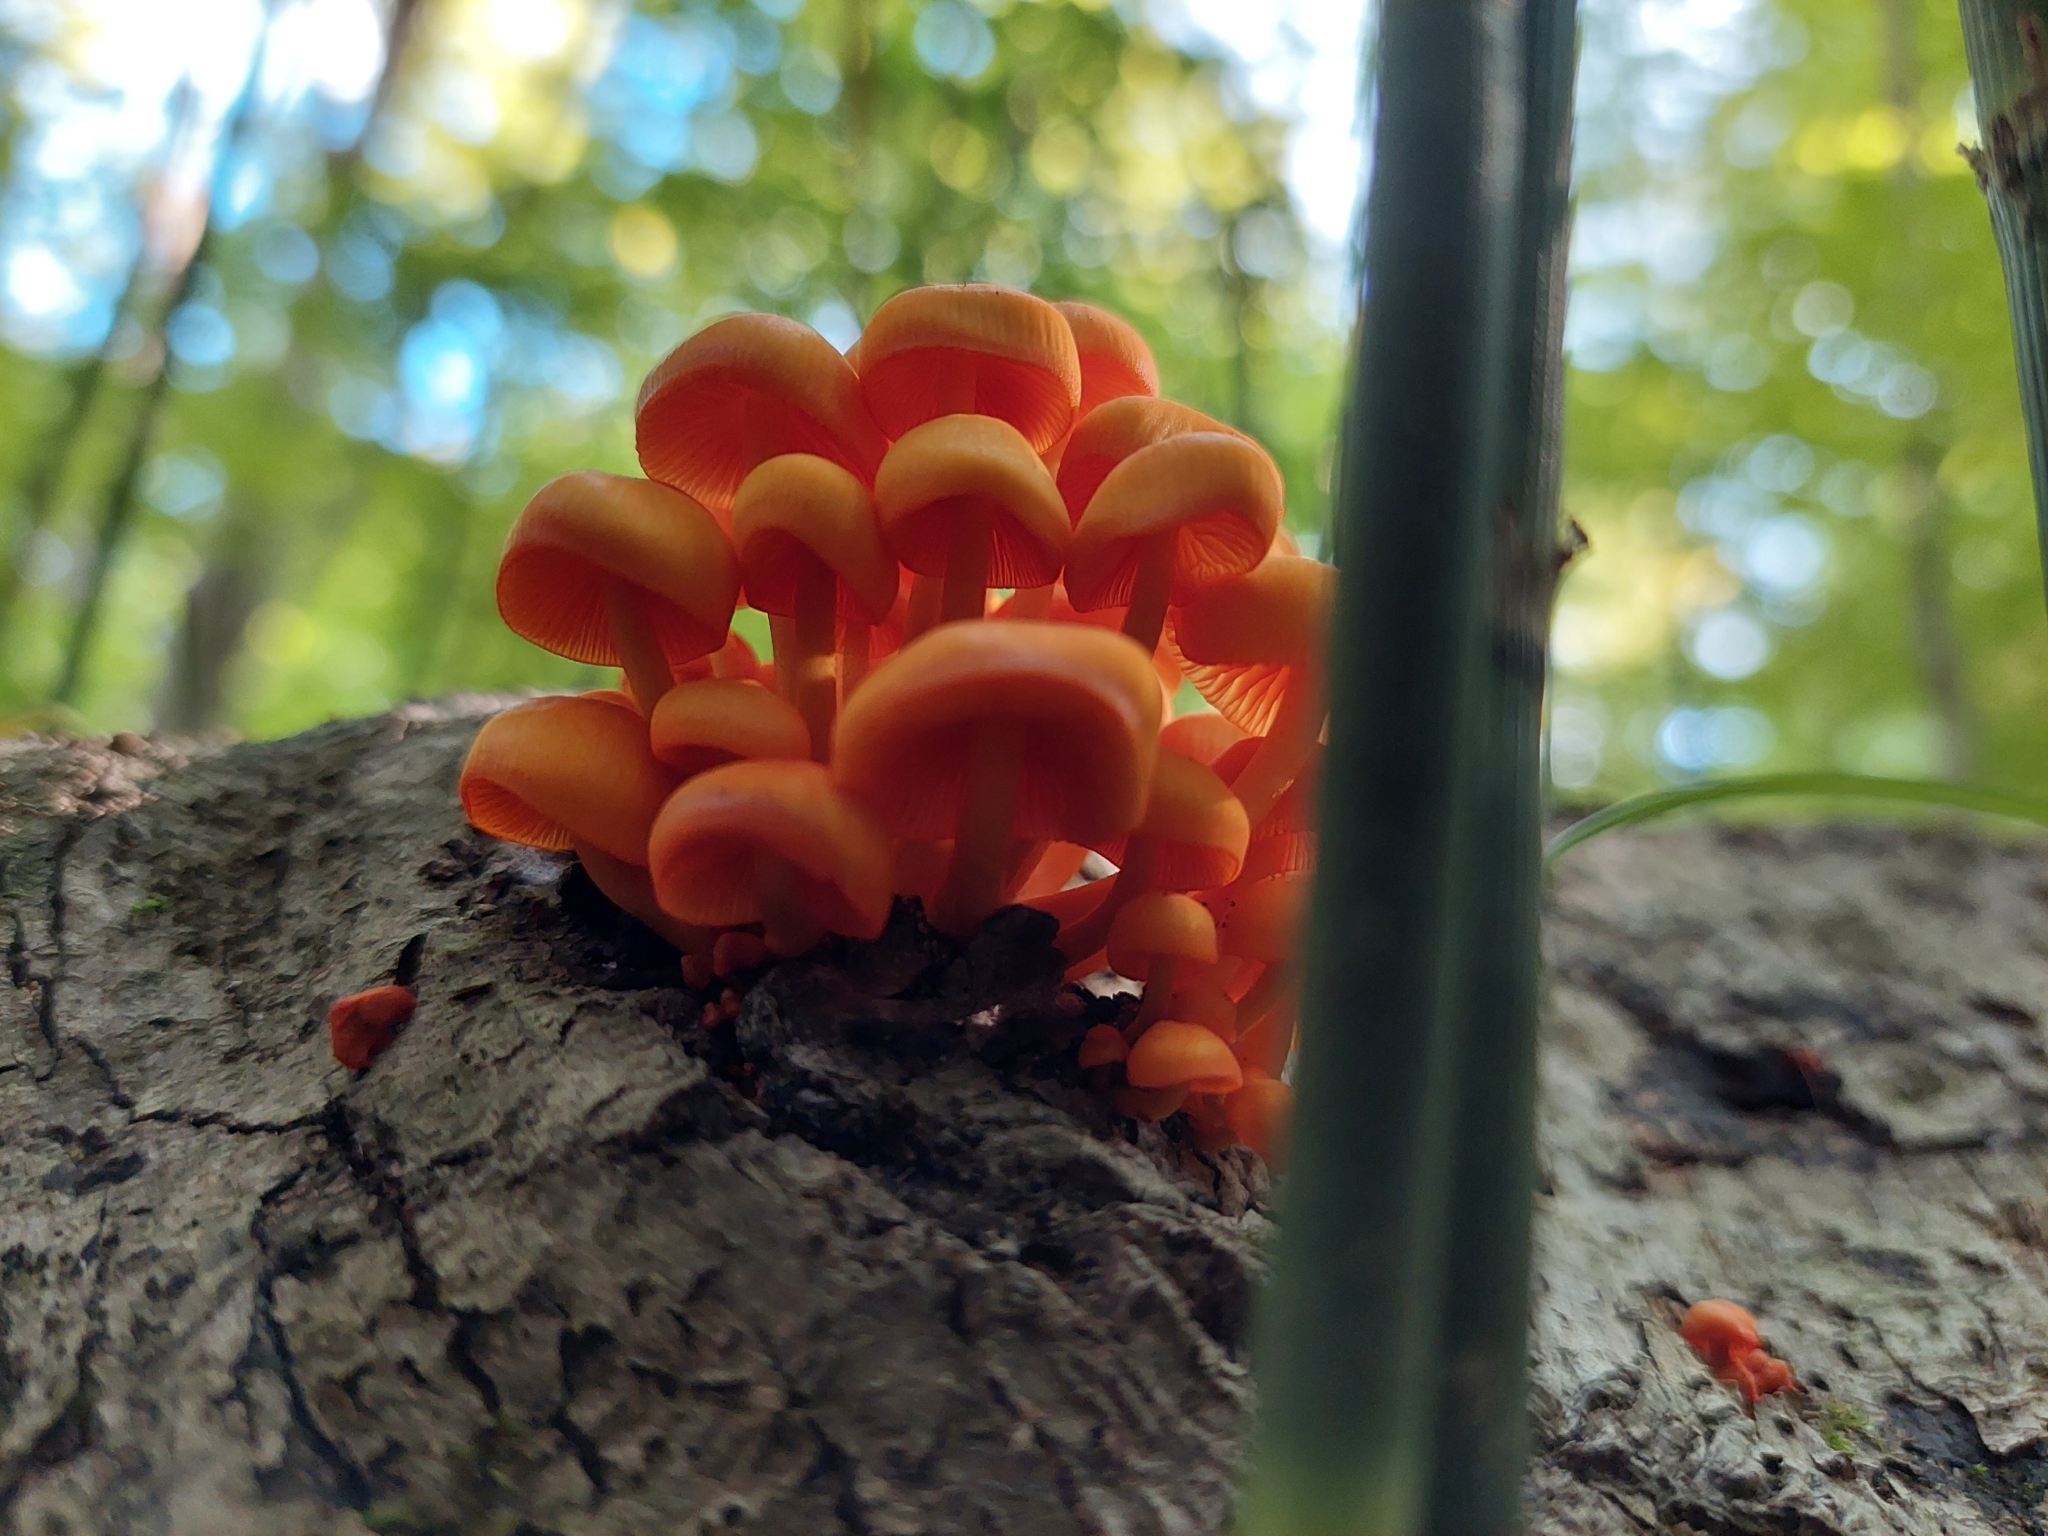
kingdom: Fungi
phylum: Basidiomycota
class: Agaricomycetes
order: Agaricales
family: Mycenaceae
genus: Mycena
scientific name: Mycena leaiana
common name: Orange mycena
